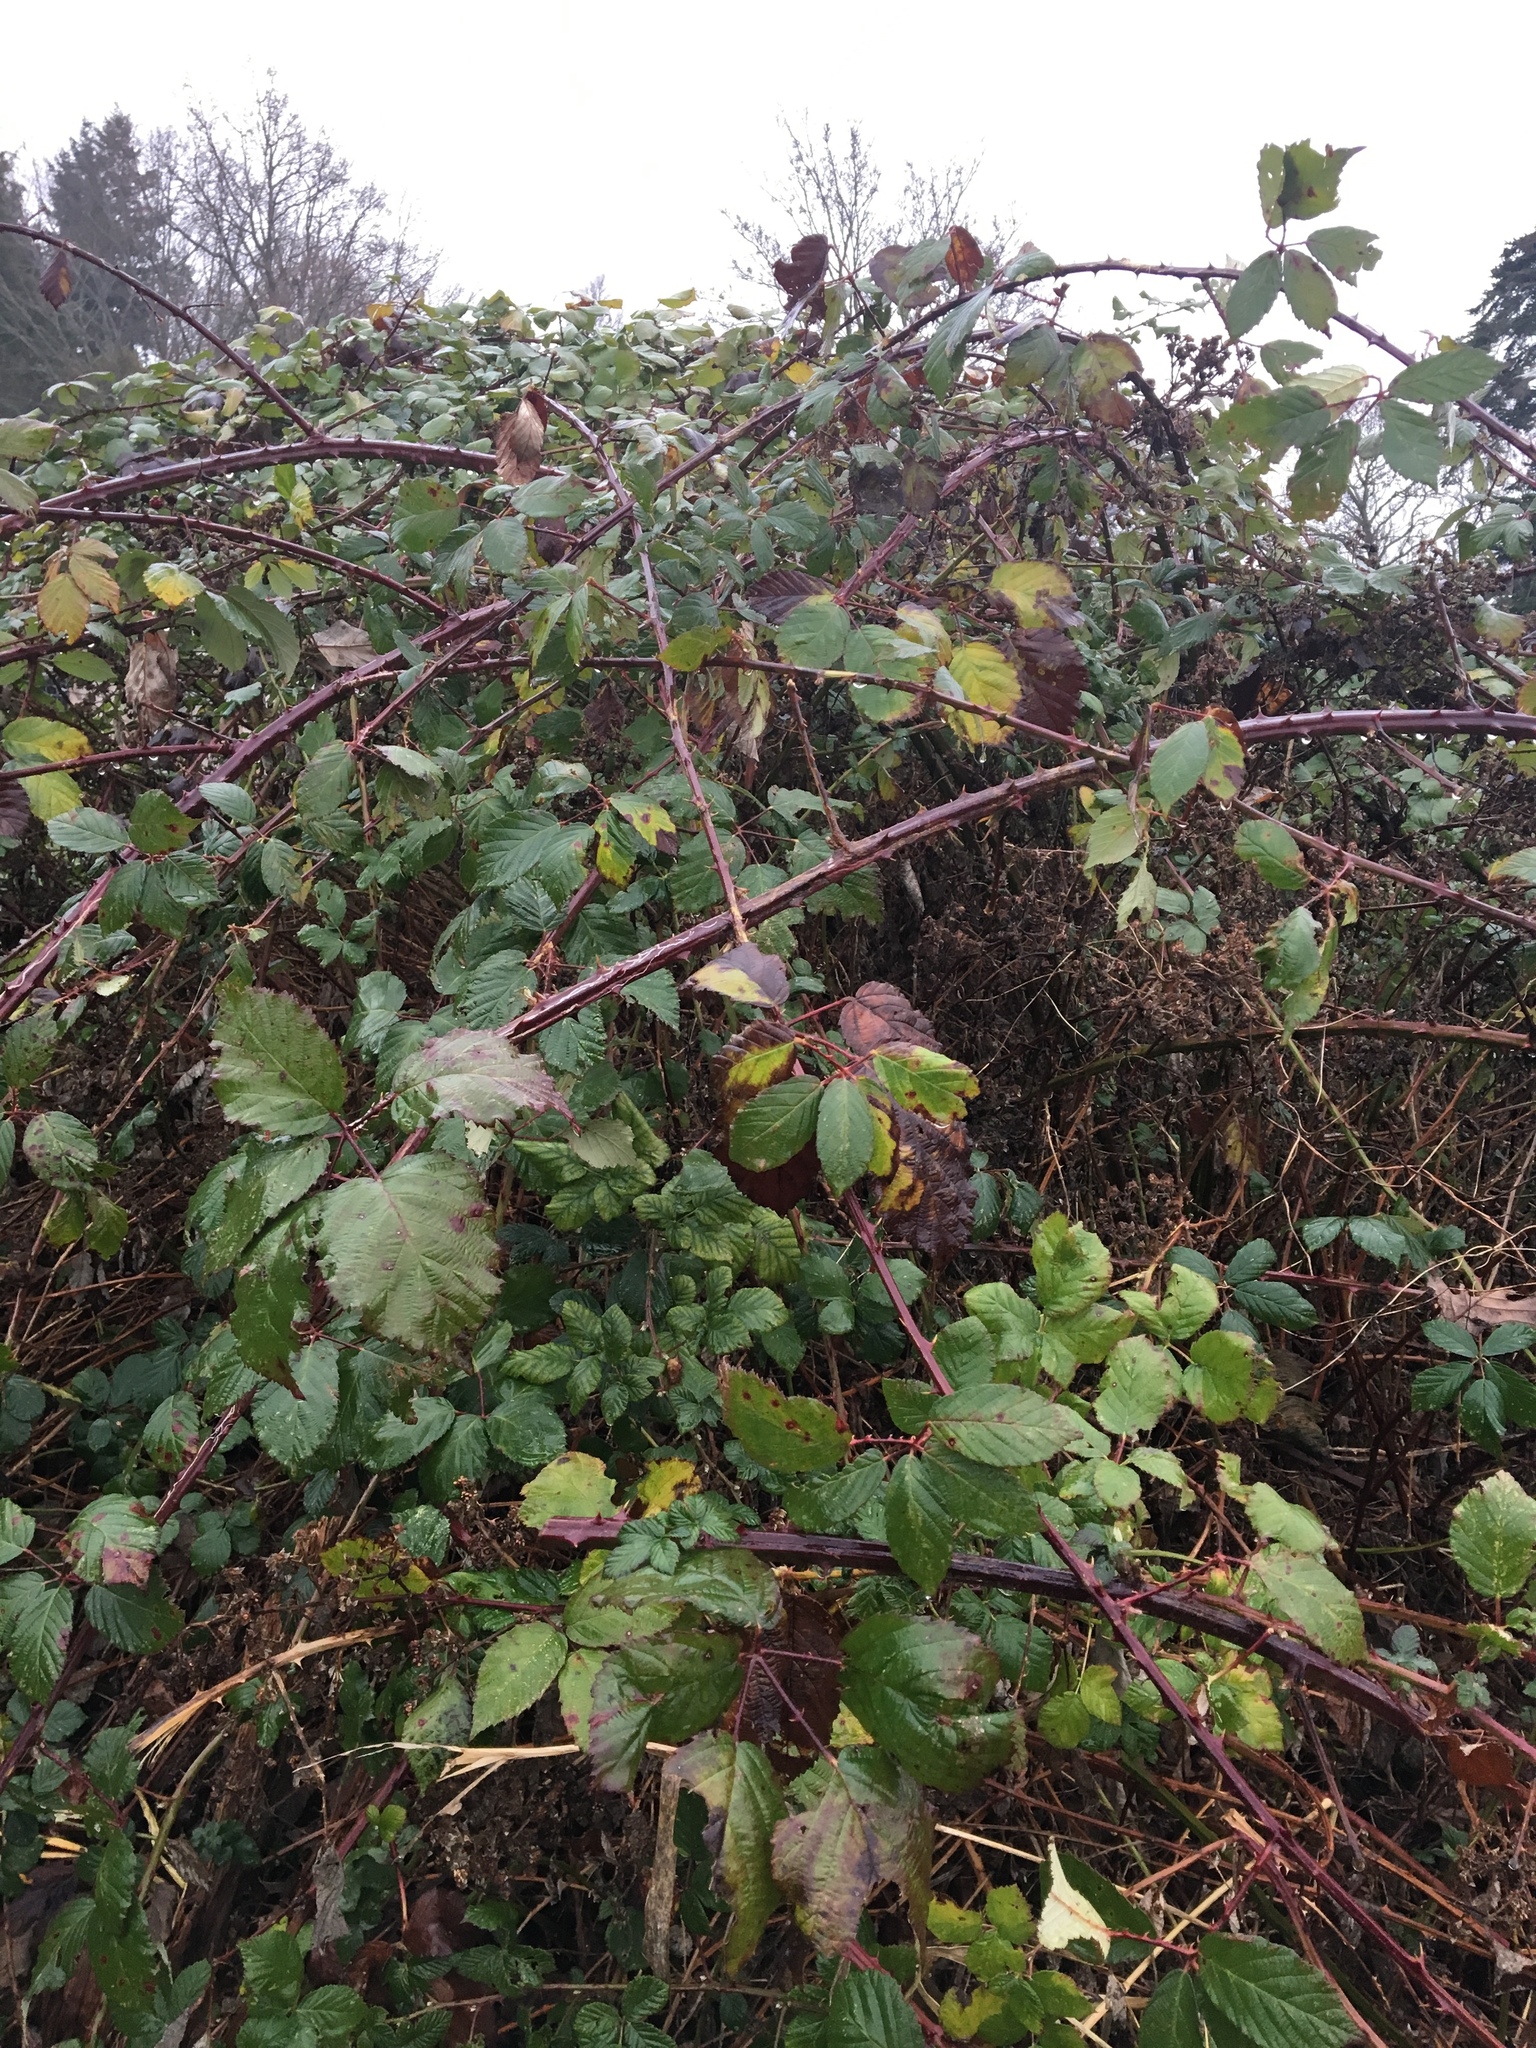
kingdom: Plantae
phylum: Tracheophyta
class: Magnoliopsida
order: Rosales
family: Rosaceae
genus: Rubus
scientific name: Rubus armeniacus
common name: Himalayan blackberry
